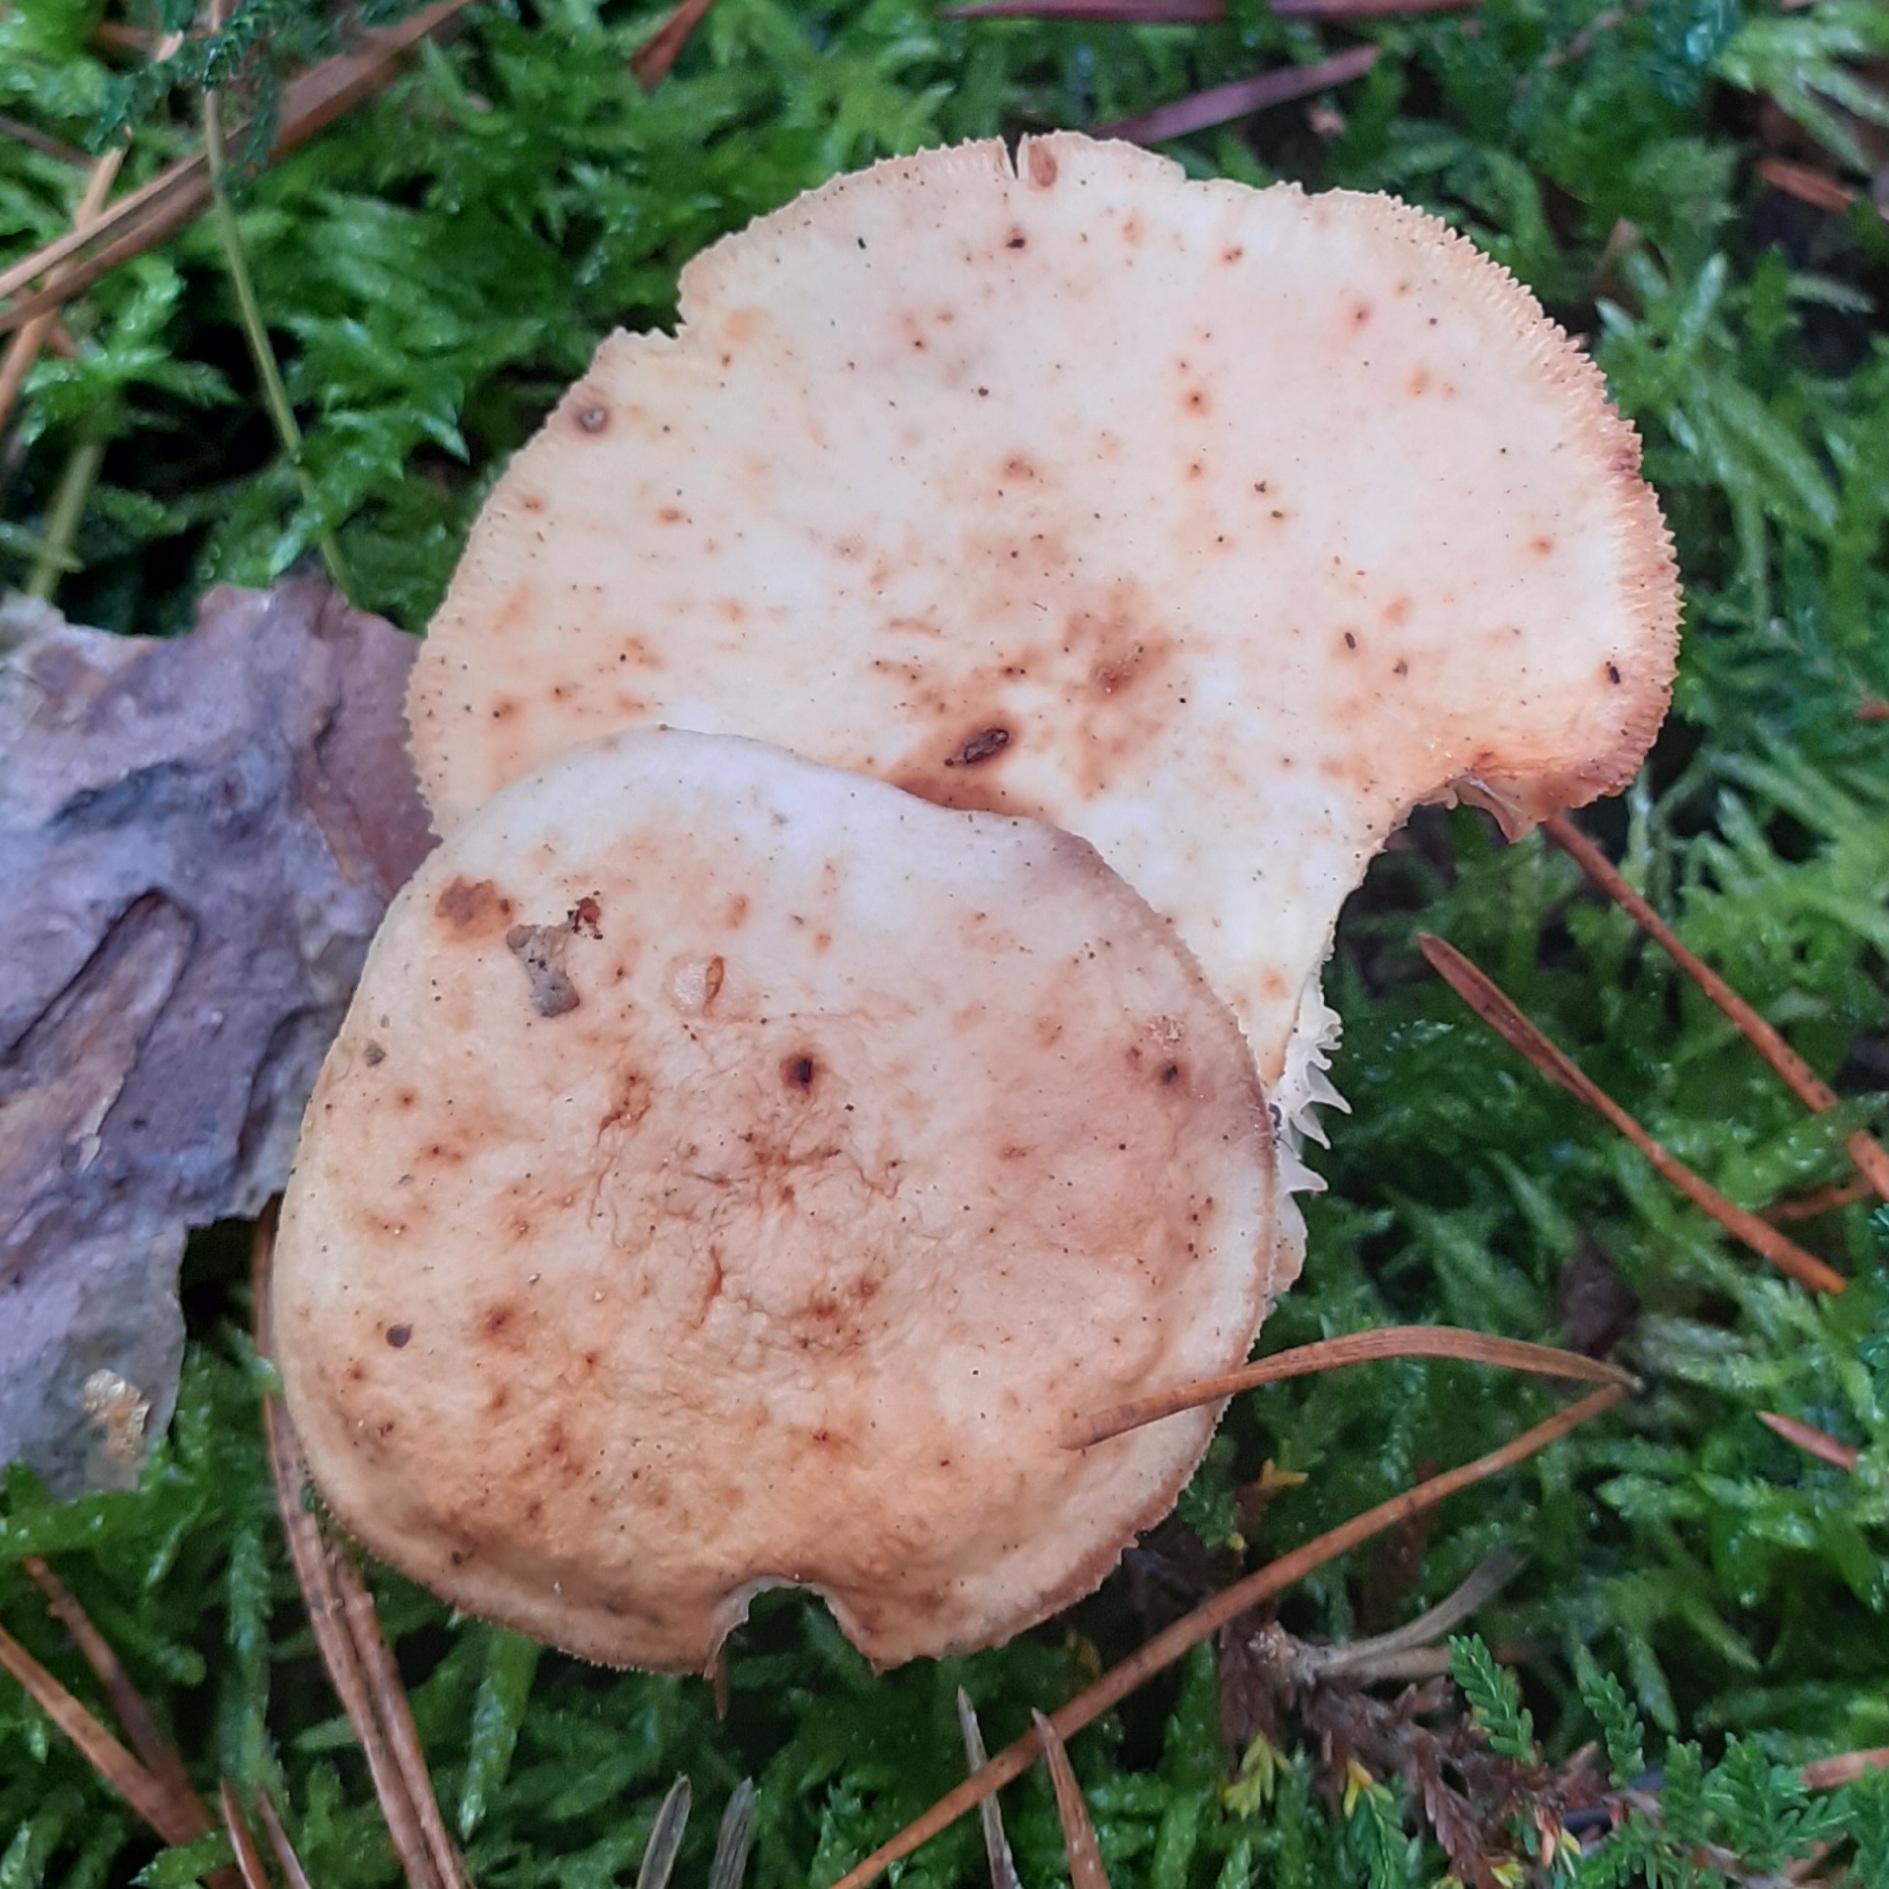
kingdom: Fungi
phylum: Basidiomycota
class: Agaricomycetes
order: Agaricales
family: Omphalotaceae
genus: Rhodocollybia
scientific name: Rhodocollybia maculata
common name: Spotted tough-shank
